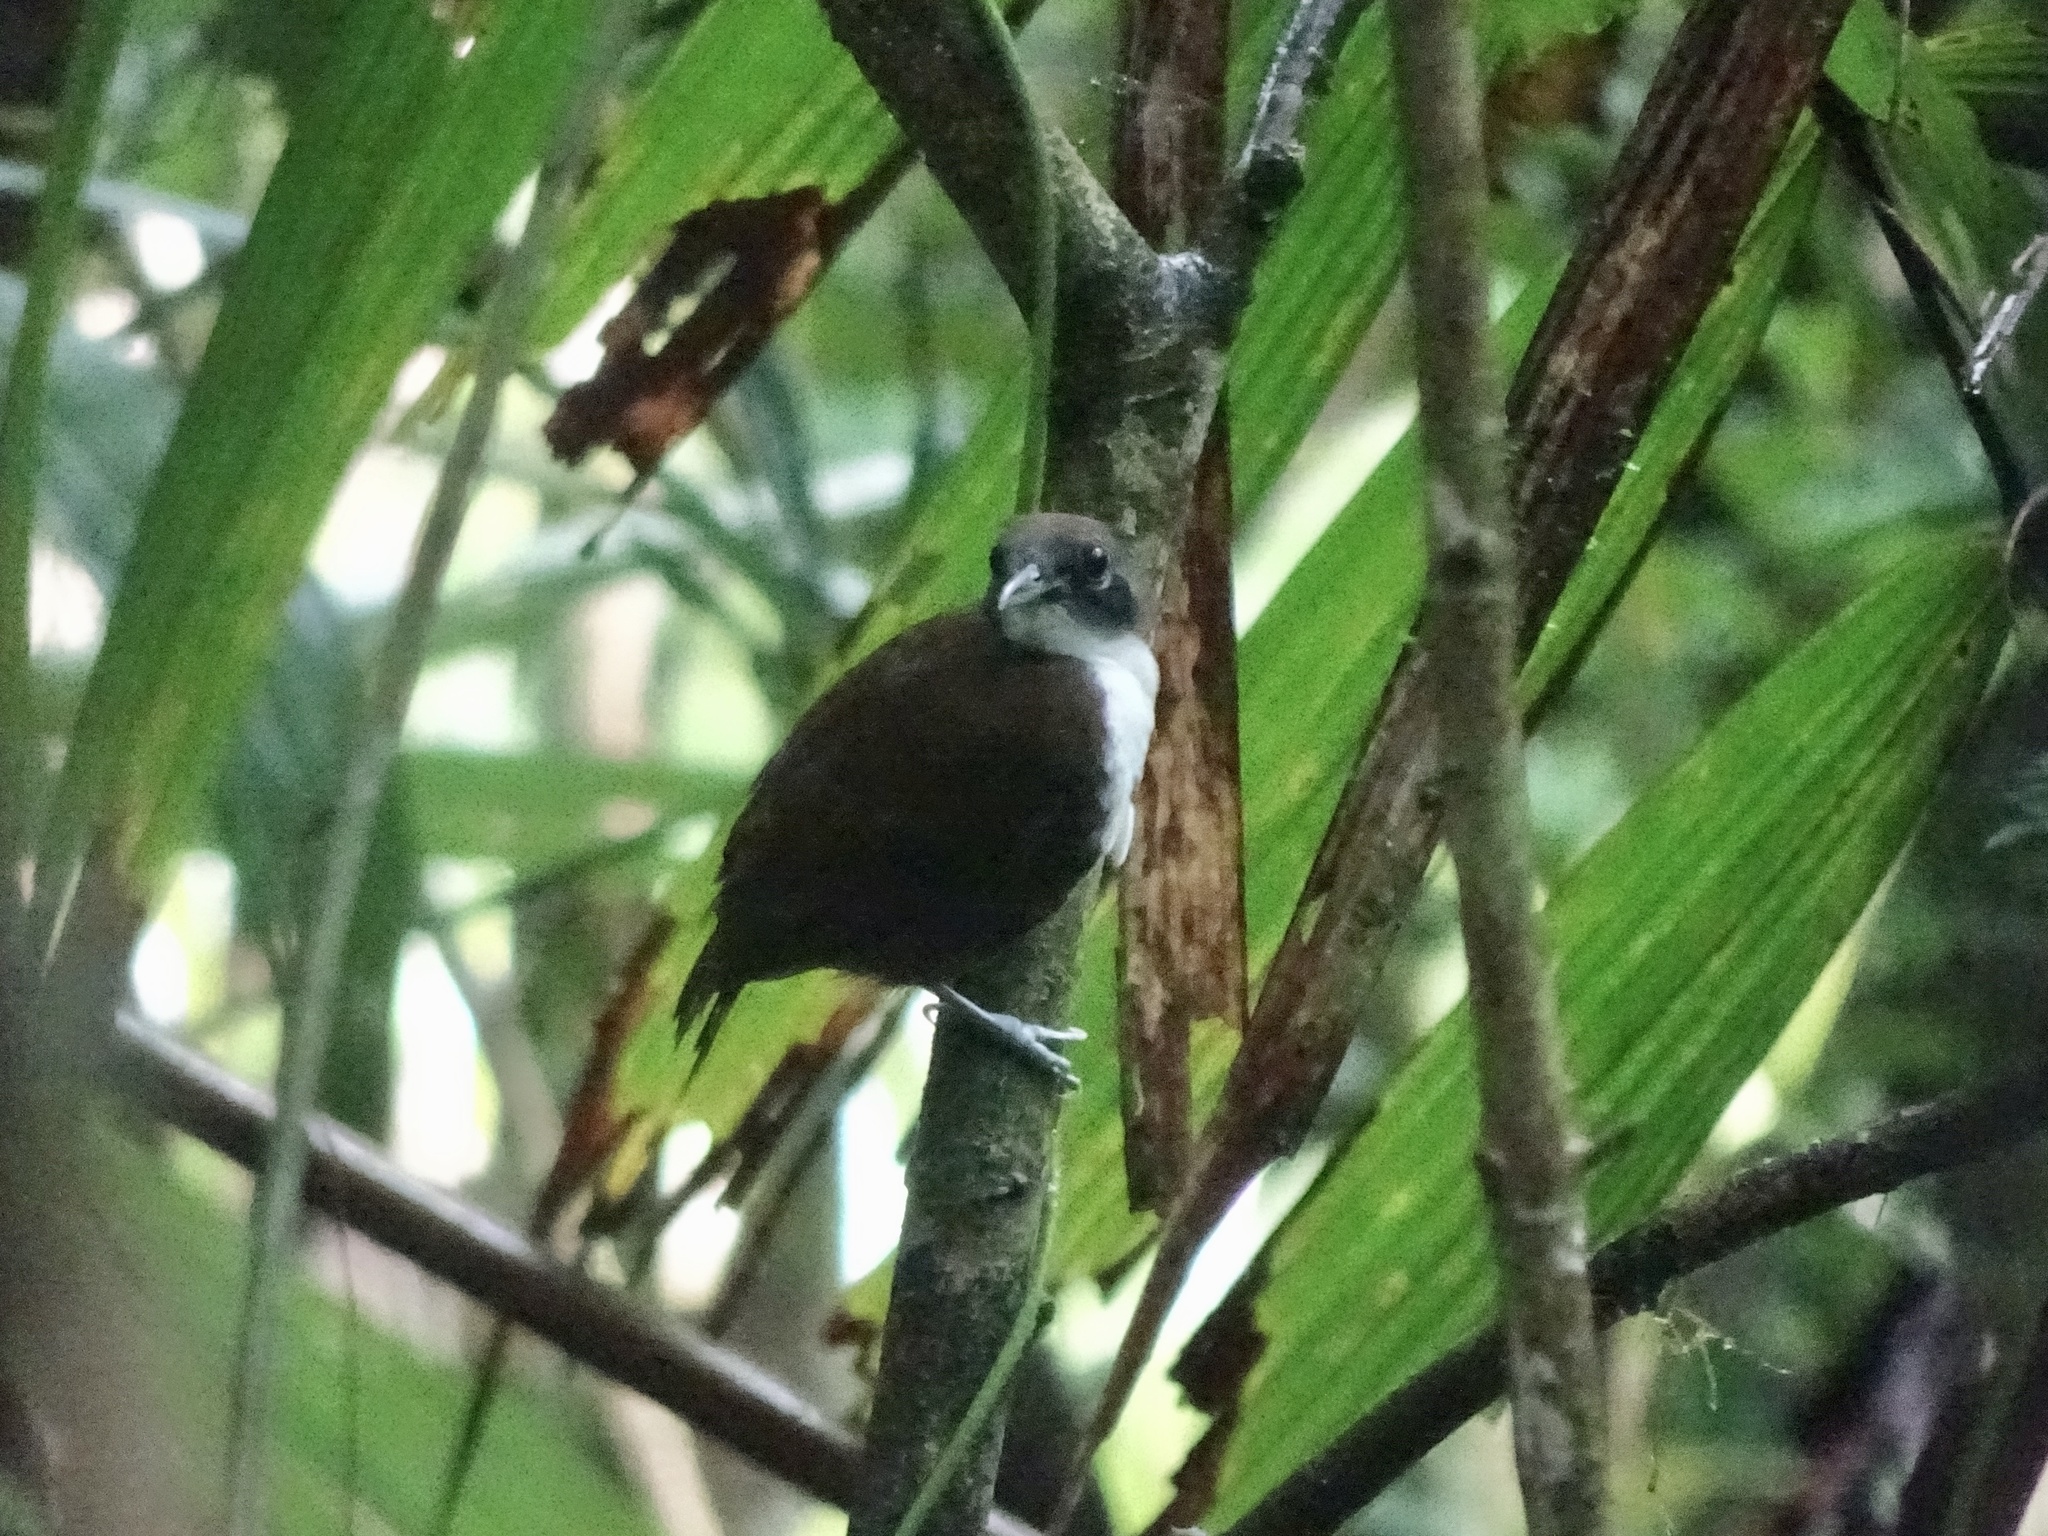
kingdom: Animalia
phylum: Chordata
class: Aves
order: Passeriformes
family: Thamnophilidae
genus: Gymnopithys
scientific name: Gymnopithys leucaspis
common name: White-cheeked antbird
